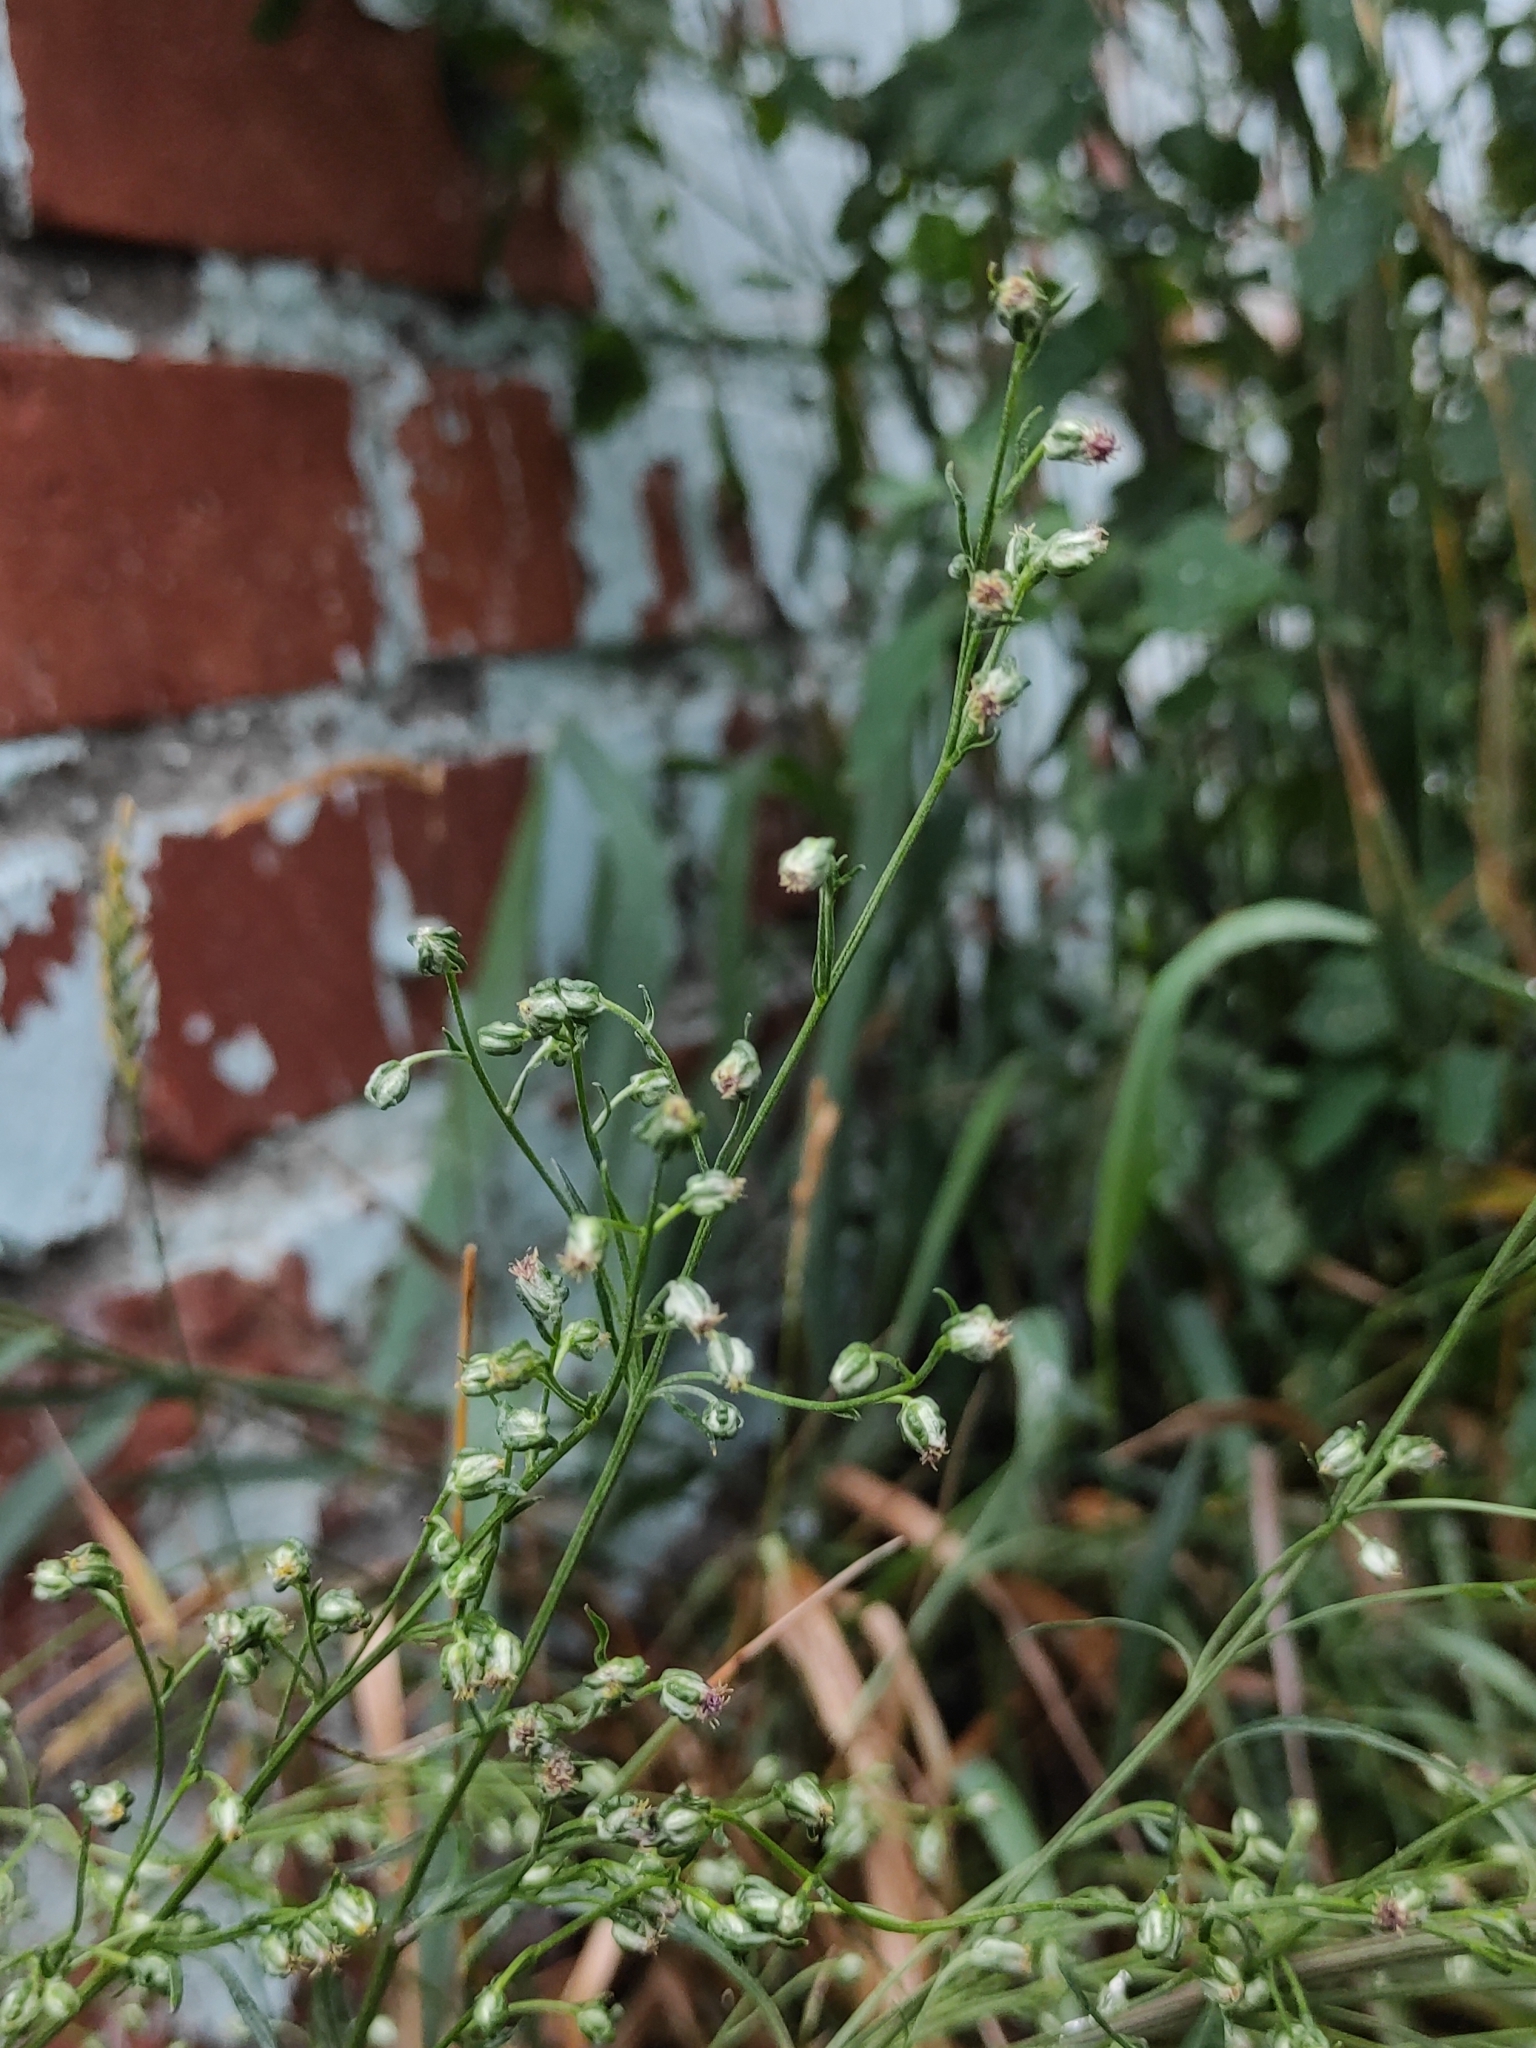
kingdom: Plantae
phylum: Tracheophyta
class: Magnoliopsida
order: Asterales
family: Asteraceae
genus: Artemisia
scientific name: Artemisia vulgaris
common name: Mugwort
